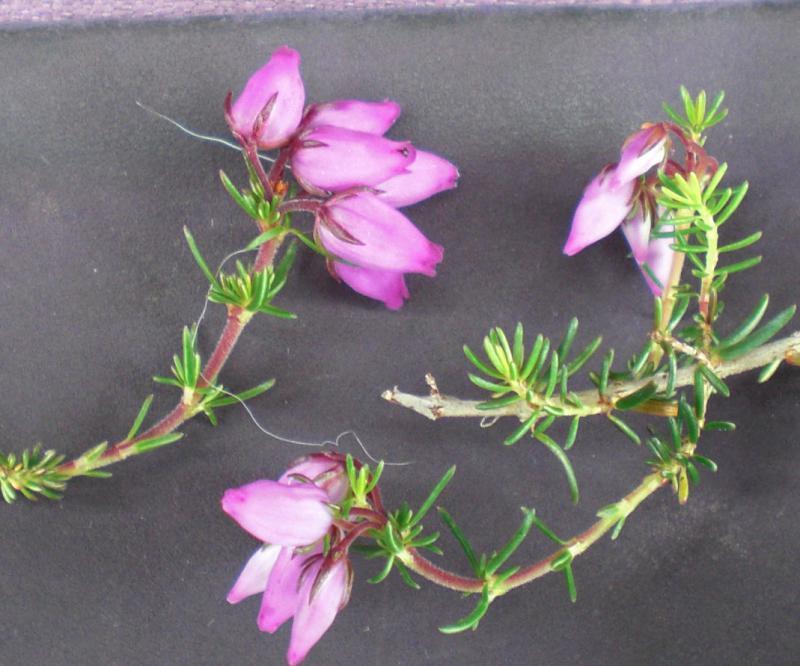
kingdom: Plantae
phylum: Tracheophyta
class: Magnoliopsida
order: Ericales
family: Ericaceae
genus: Erica
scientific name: Erica cinerea
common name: Bell heather
